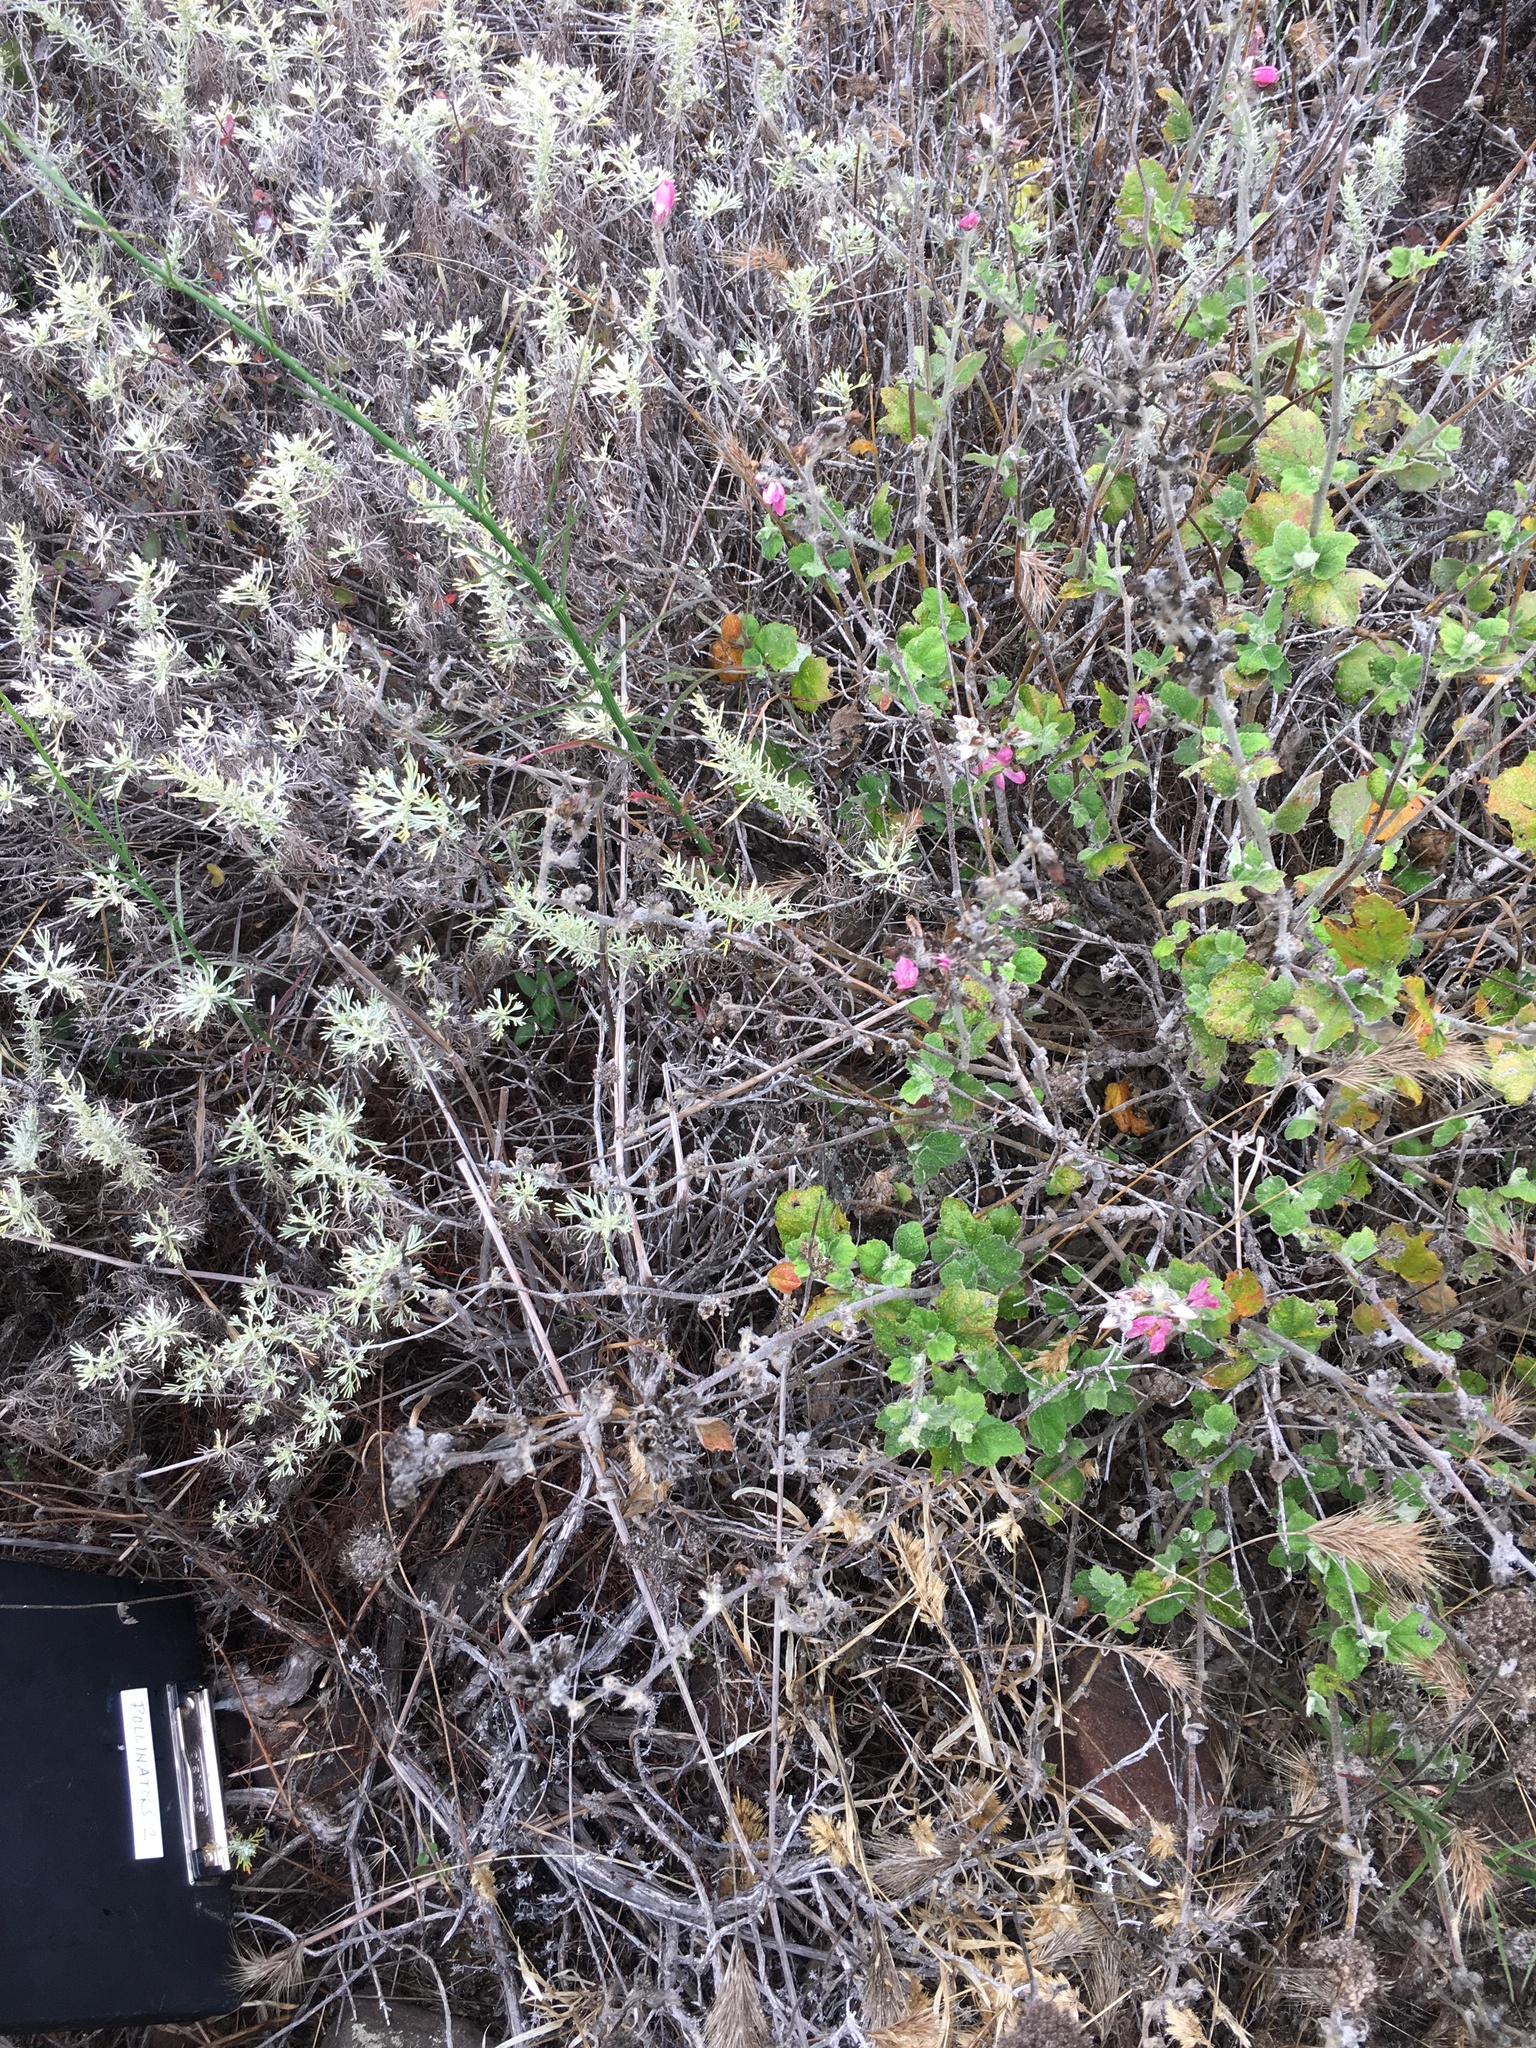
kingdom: Plantae
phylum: Tracheophyta
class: Magnoliopsida
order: Malvales
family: Malvaceae
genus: Malacothamnus
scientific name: Malacothamnus clementinus
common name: San clemente island bush-mallow
